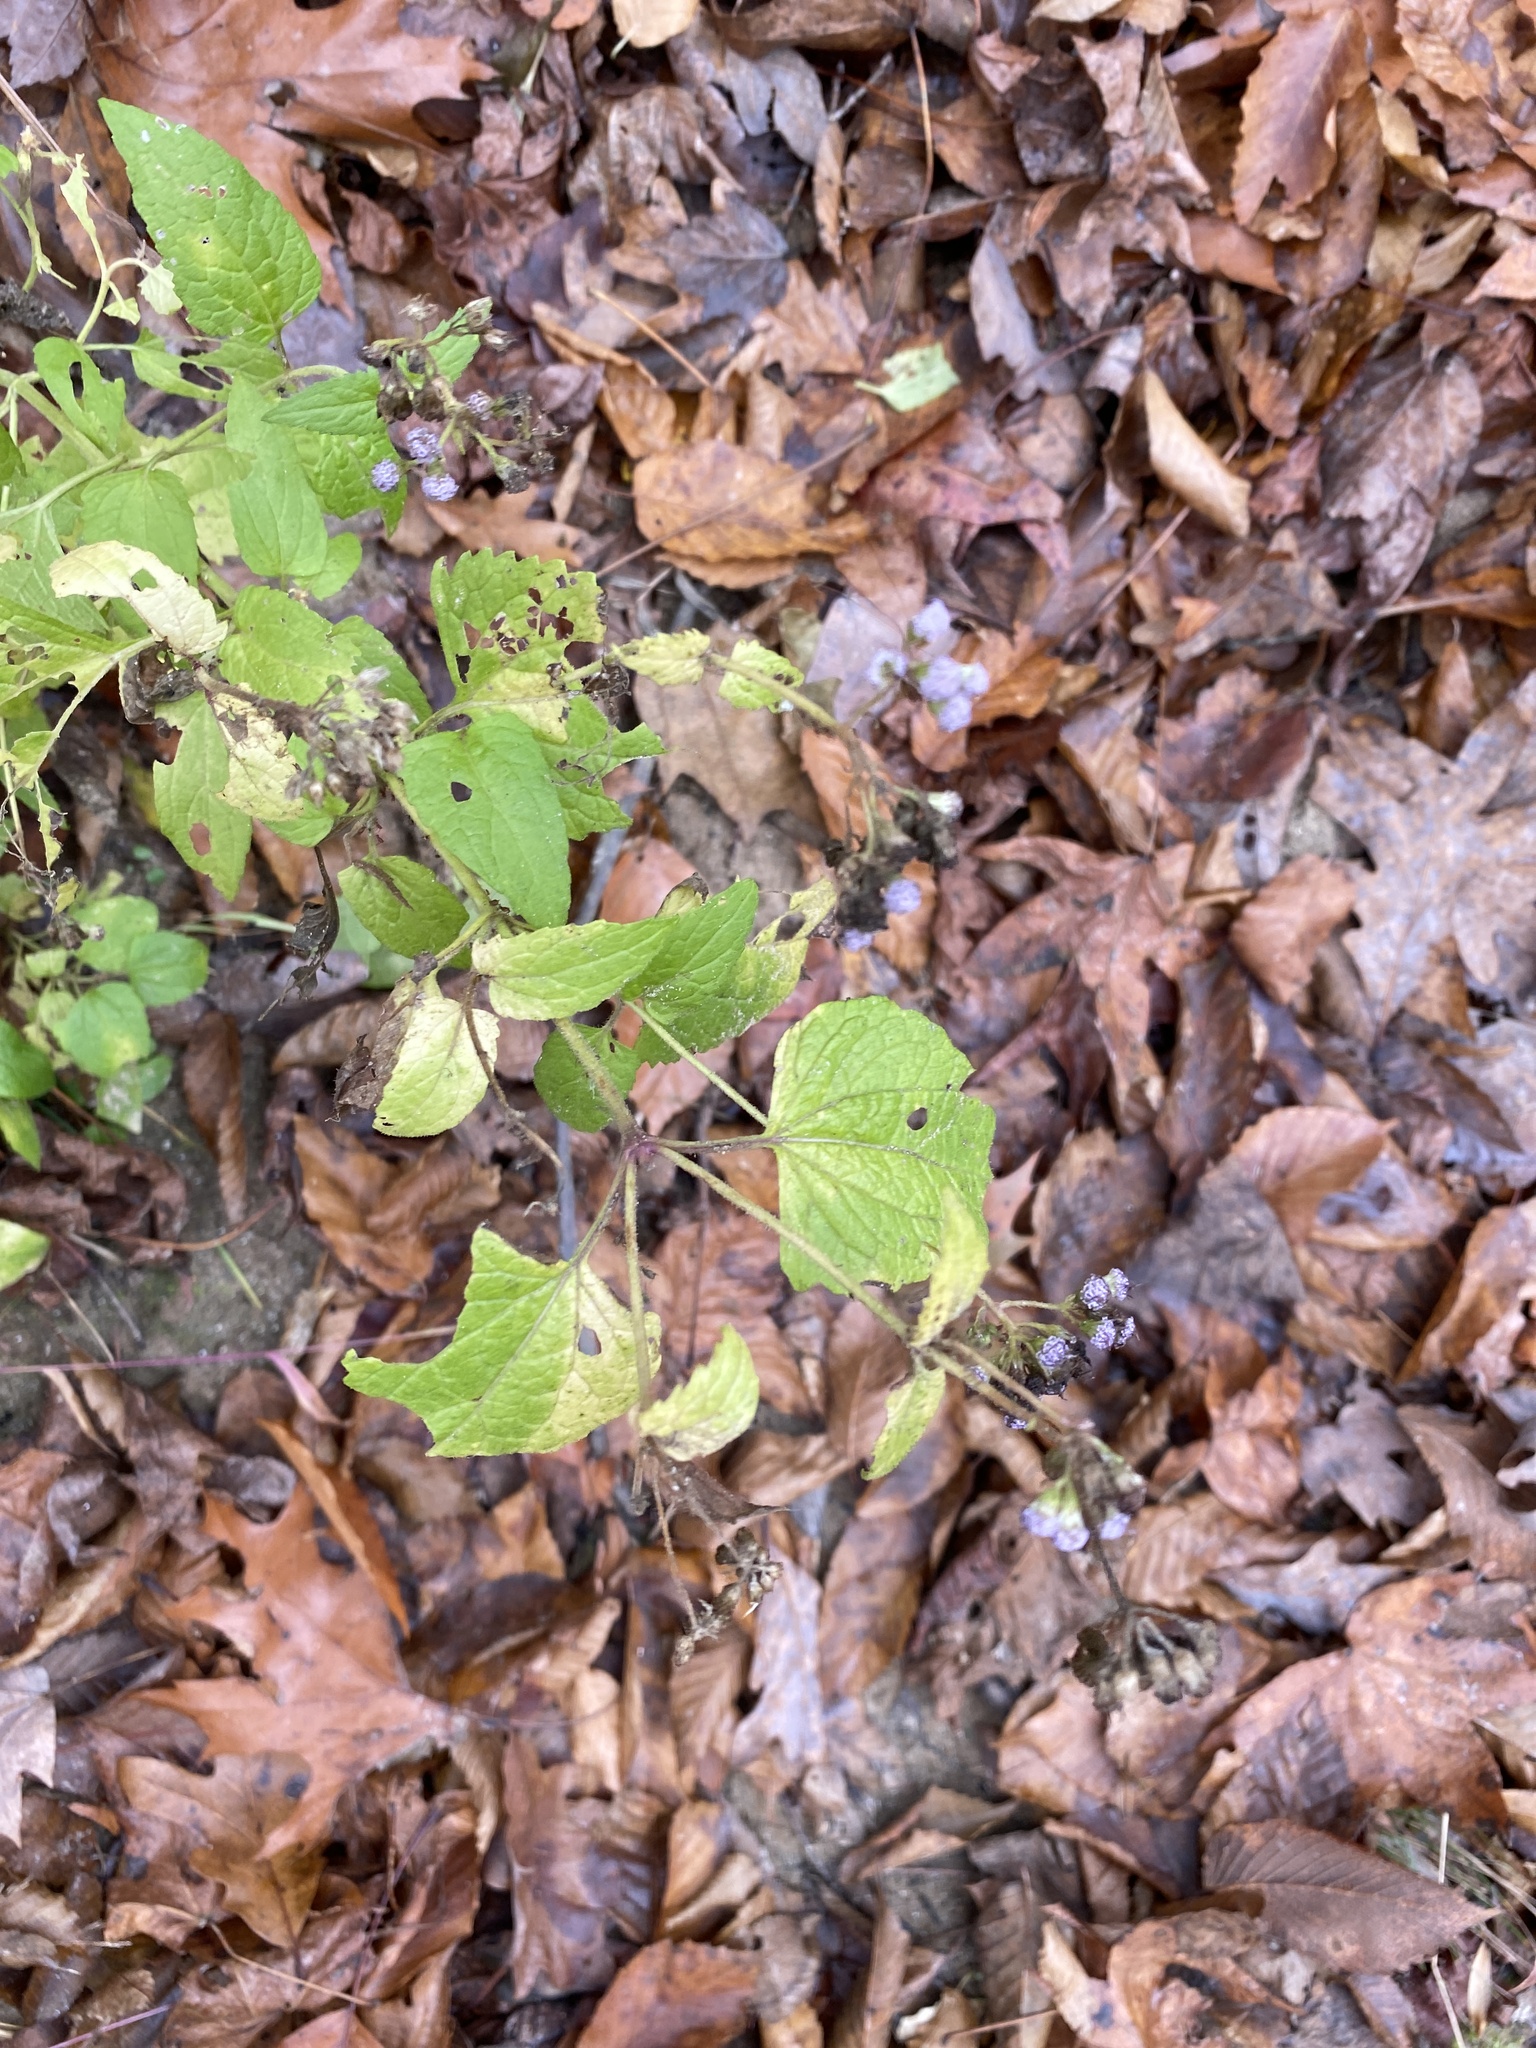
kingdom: Plantae
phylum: Tracheophyta
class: Magnoliopsida
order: Asterales
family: Asteraceae
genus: Conoclinium
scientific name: Conoclinium coelestinum
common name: Blue mistflower
